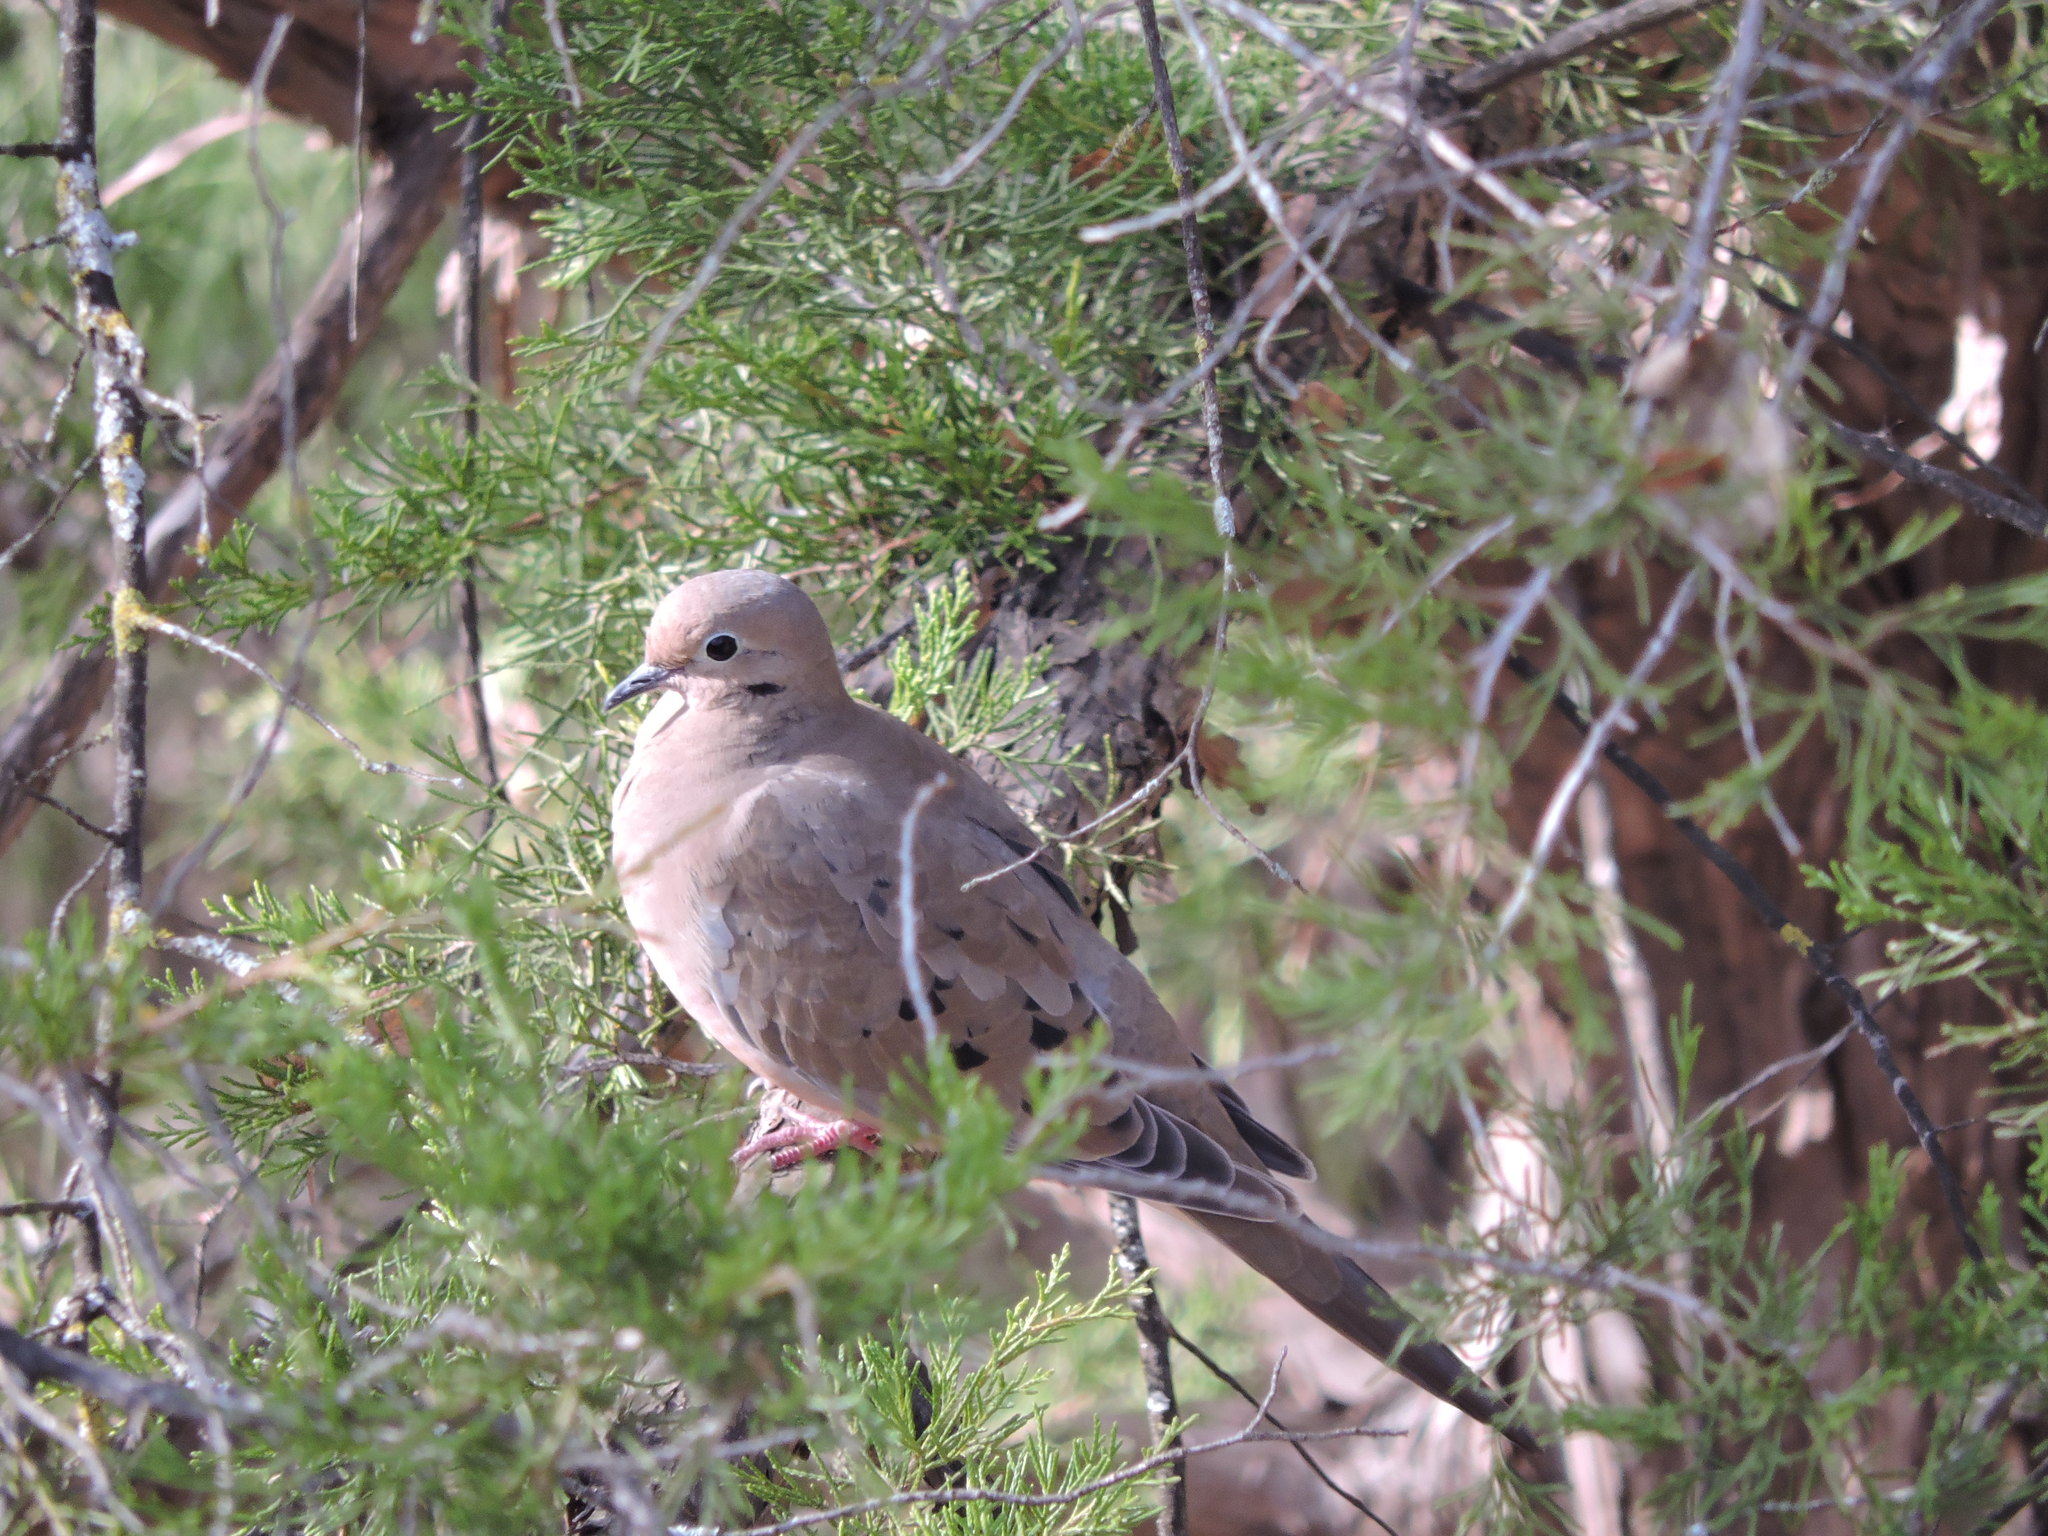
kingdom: Animalia
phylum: Chordata
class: Aves
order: Columbiformes
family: Columbidae
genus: Zenaida
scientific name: Zenaida macroura
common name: Mourning dove
